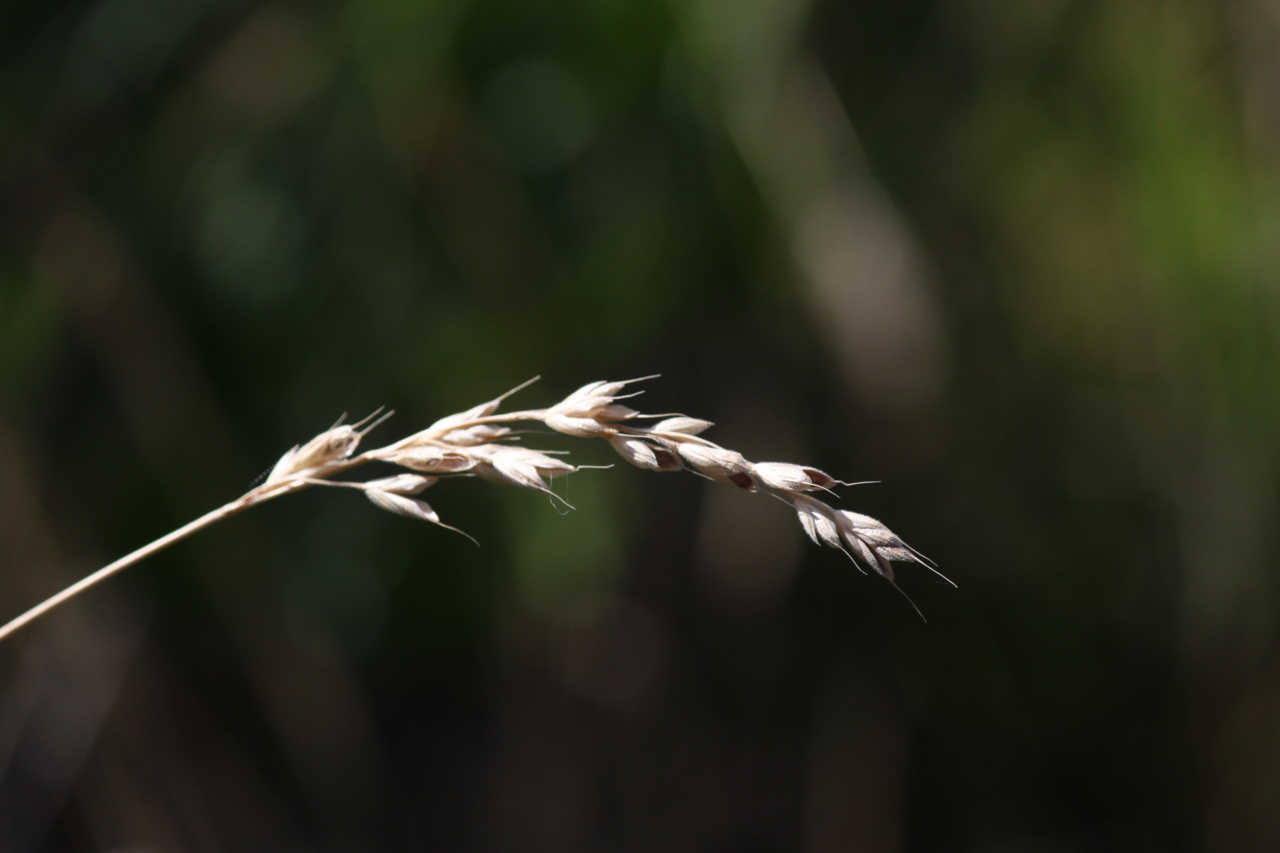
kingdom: Plantae
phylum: Tracheophyta
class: Liliopsida
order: Poales
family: Poaceae
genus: Bromus
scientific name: Bromus hordeaceus
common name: Soft brome
